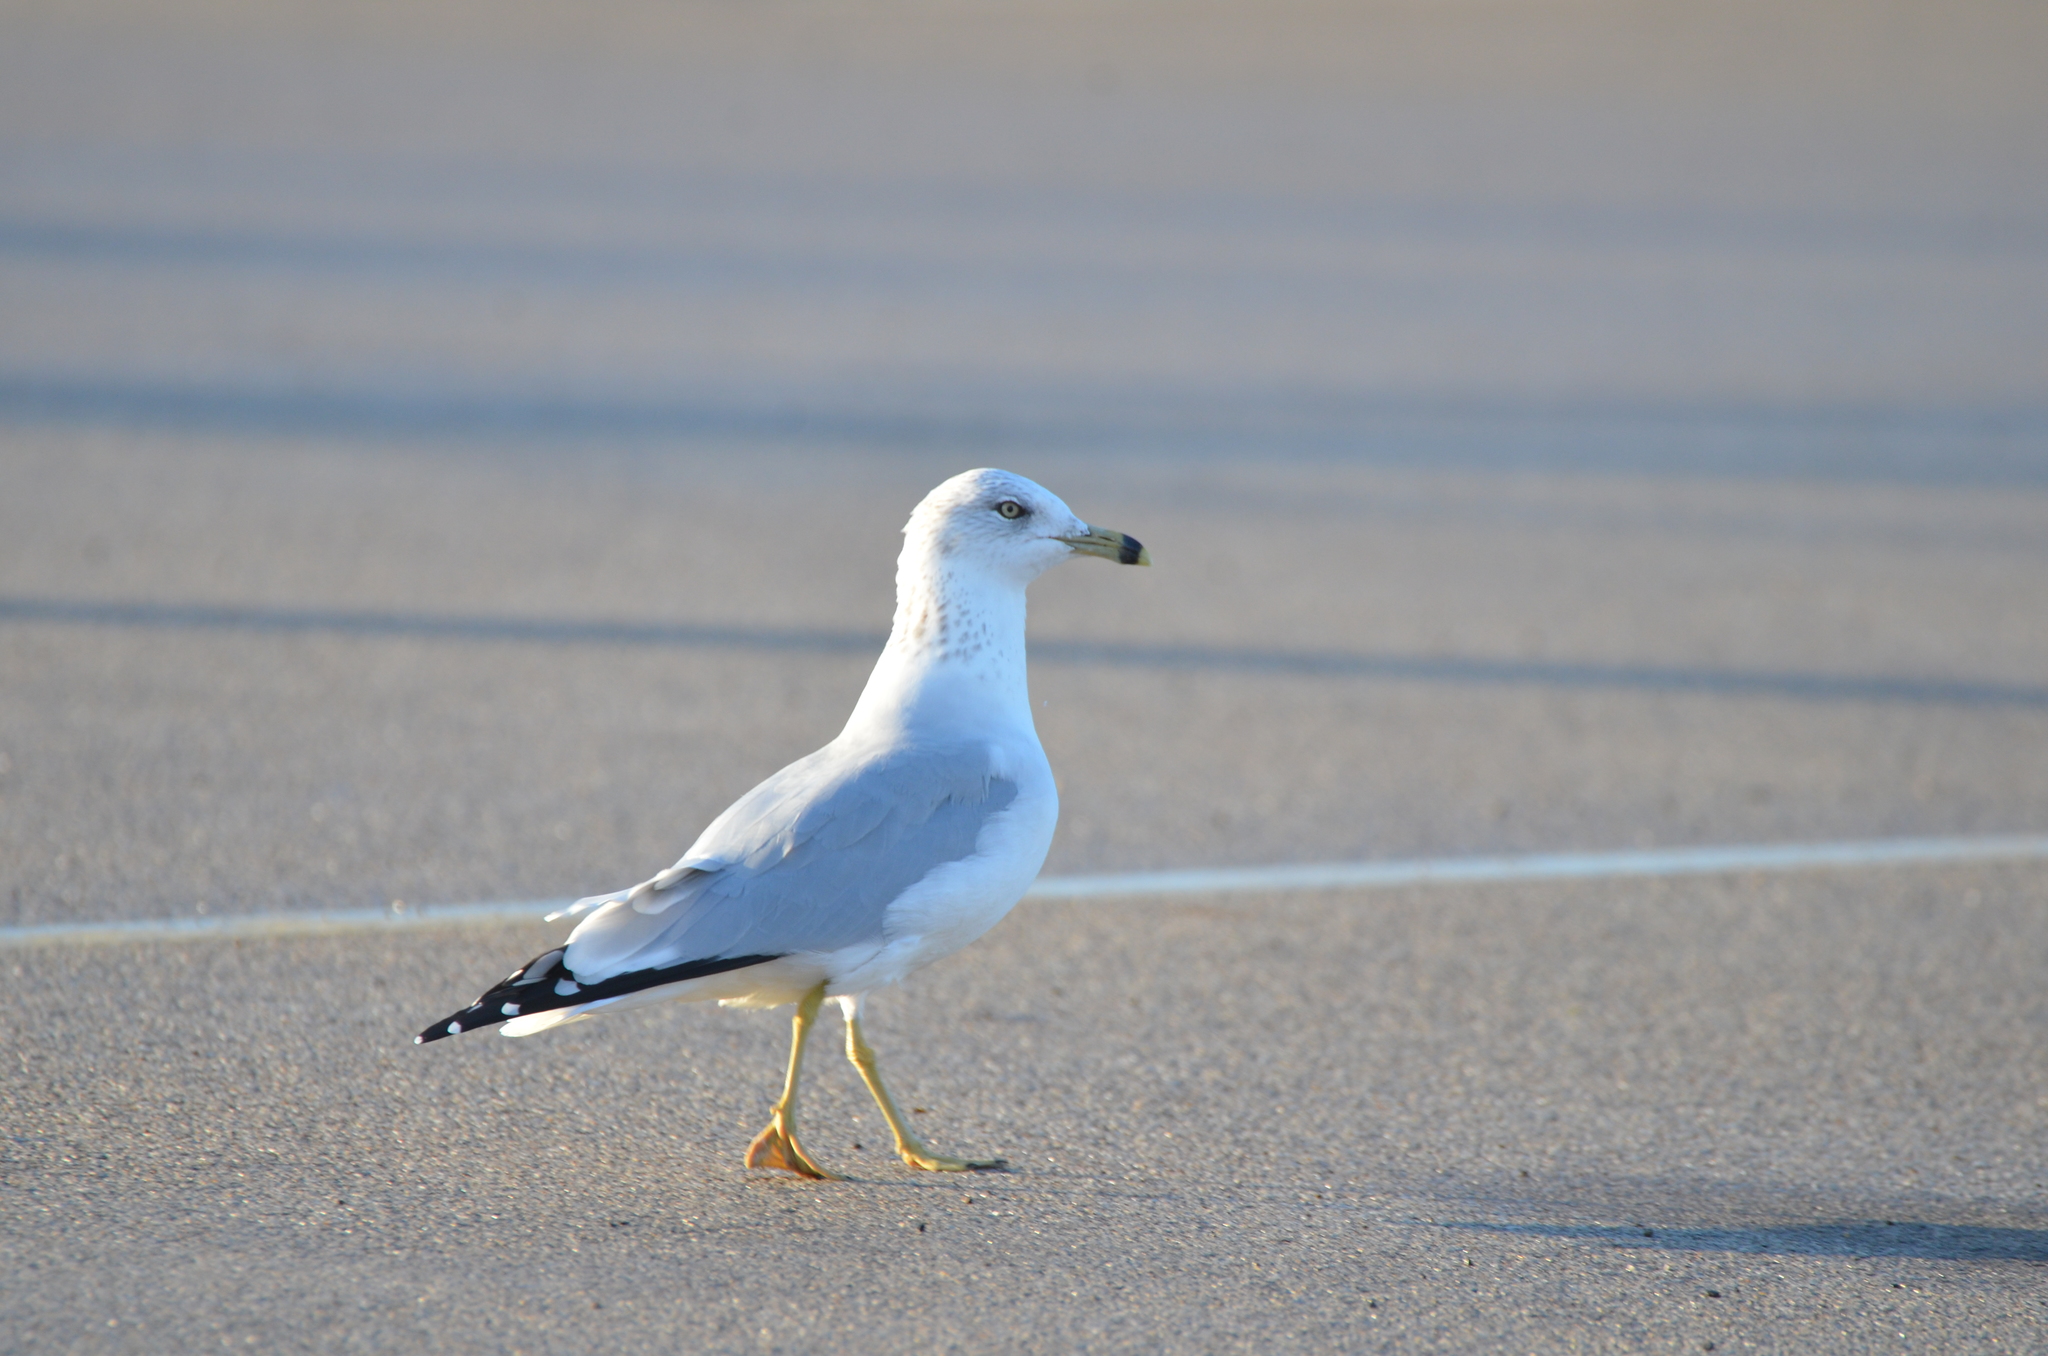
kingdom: Animalia
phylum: Chordata
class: Aves
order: Charadriiformes
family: Laridae
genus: Larus
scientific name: Larus delawarensis
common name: Ring-billed gull
